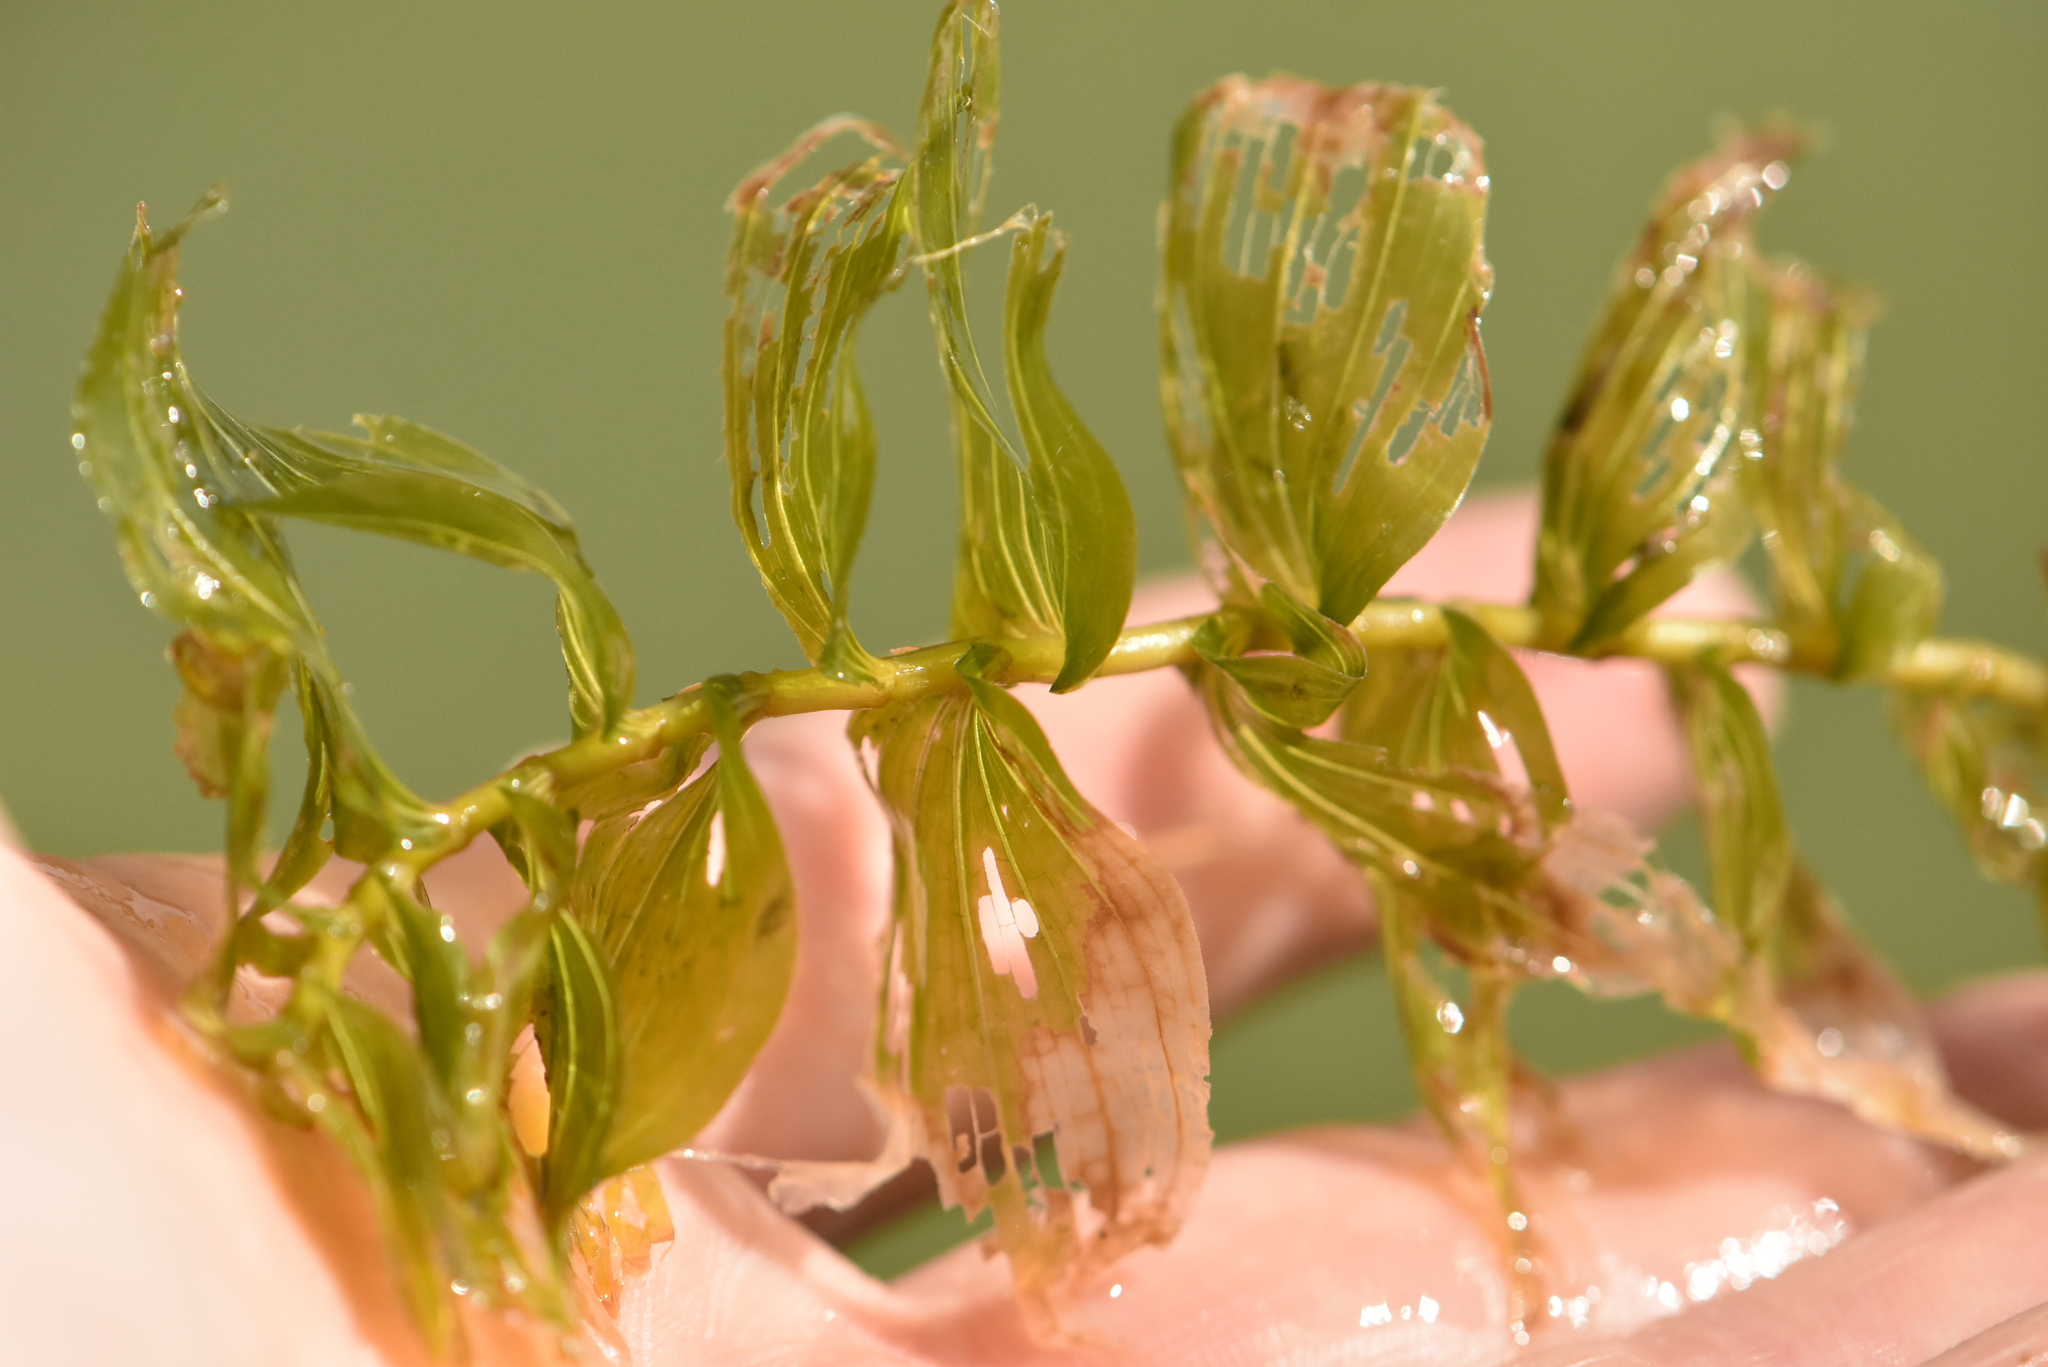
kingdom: Plantae
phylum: Tracheophyta
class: Liliopsida
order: Alismatales
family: Potamogetonaceae
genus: Potamogeton
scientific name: Potamogeton perfoliatus
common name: Perfoliate pondweed
